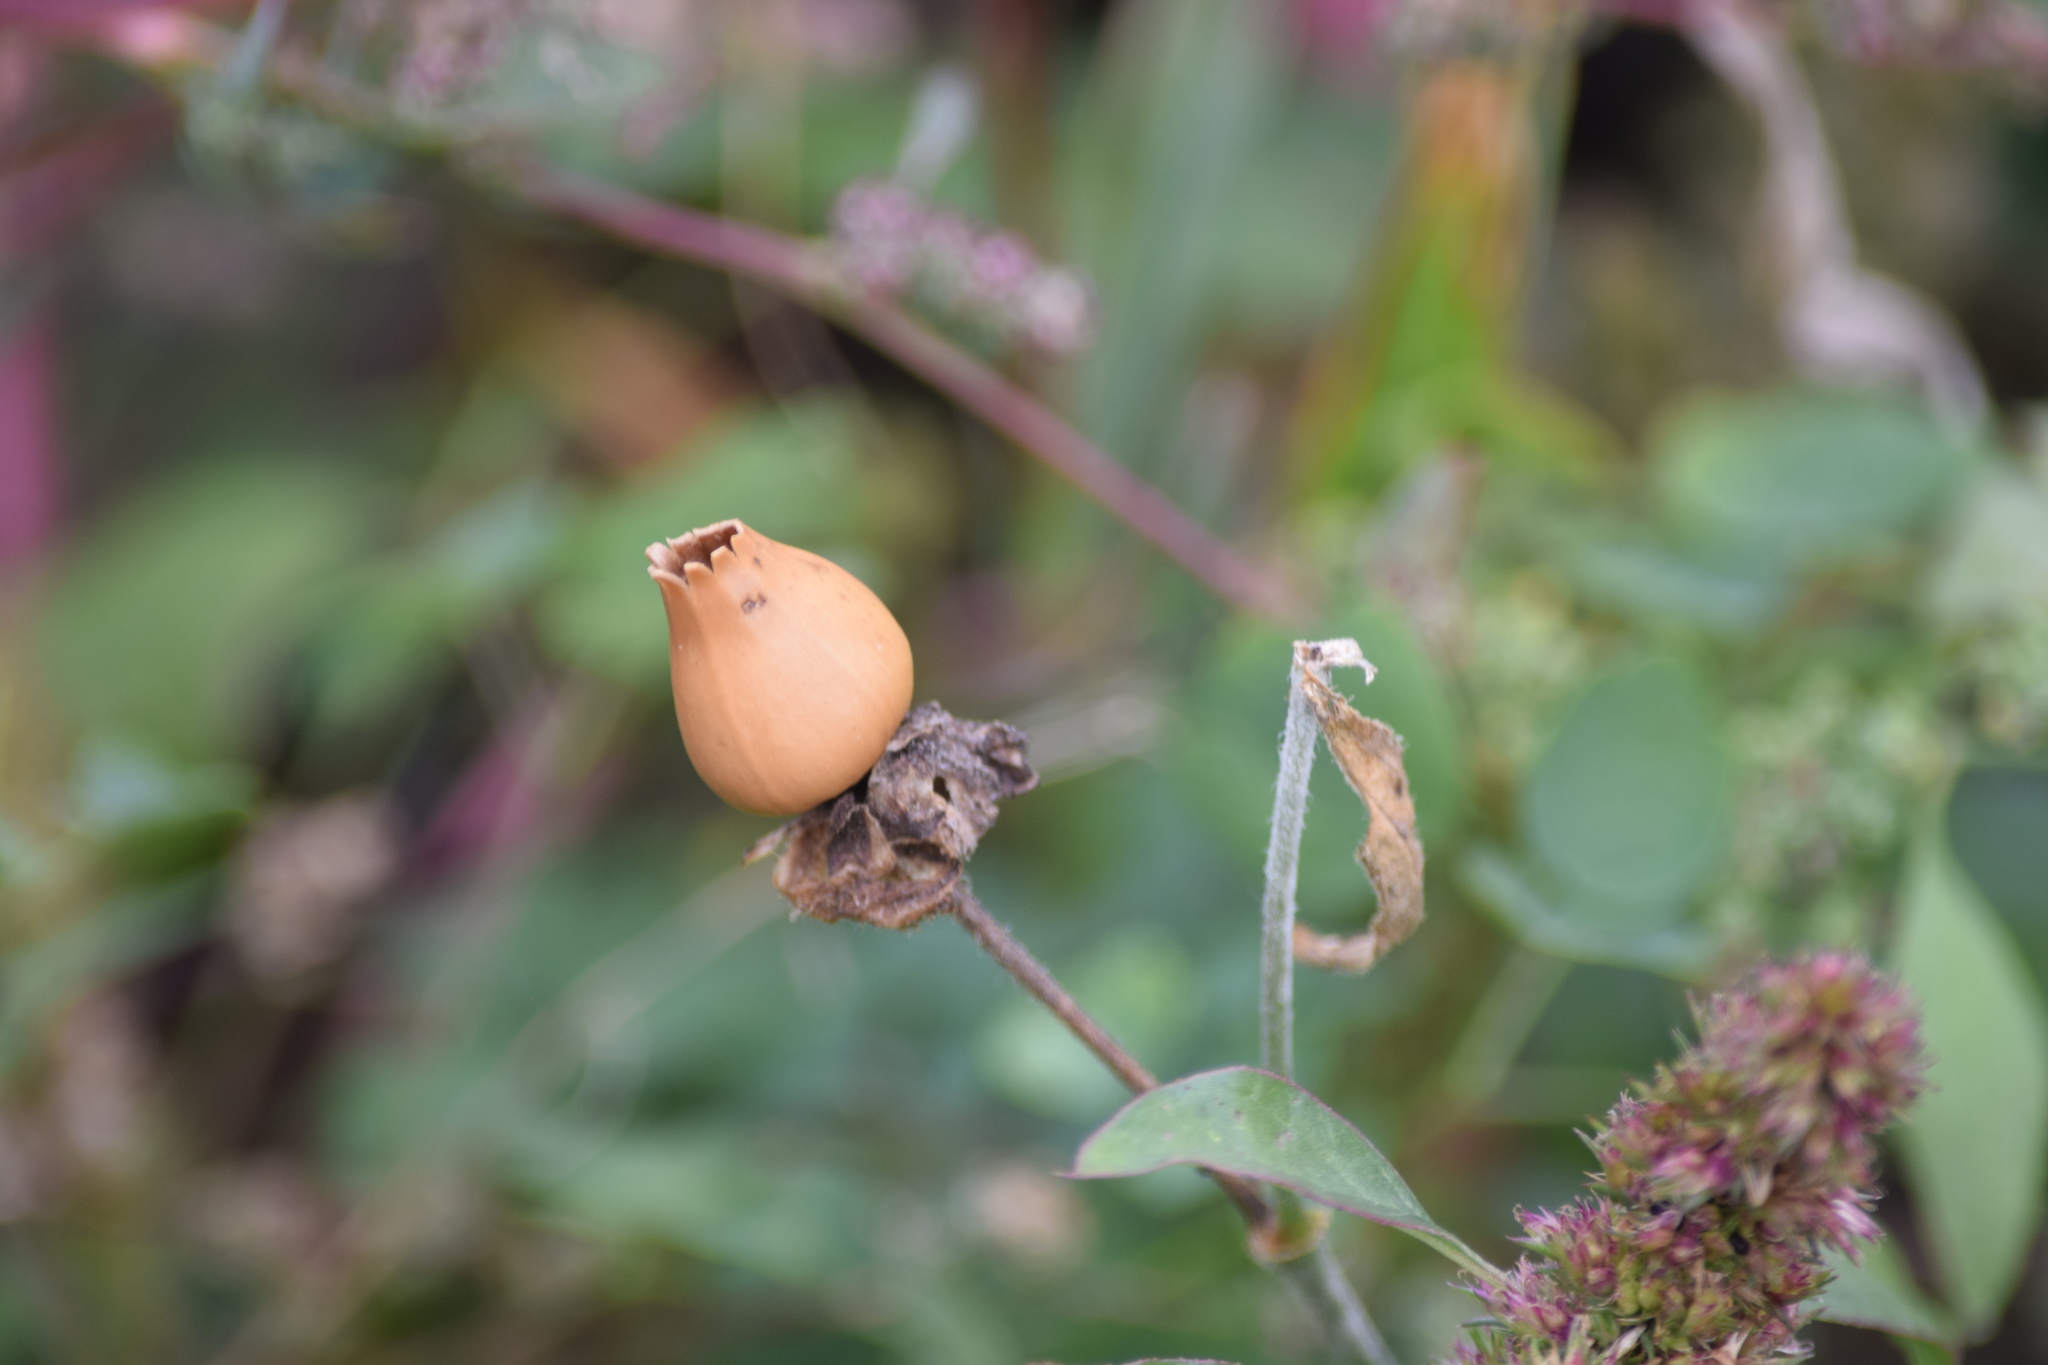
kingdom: Plantae
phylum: Tracheophyta
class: Magnoliopsida
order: Caryophyllales
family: Caryophyllaceae
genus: Silene
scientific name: Silene latifolia
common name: White campion
